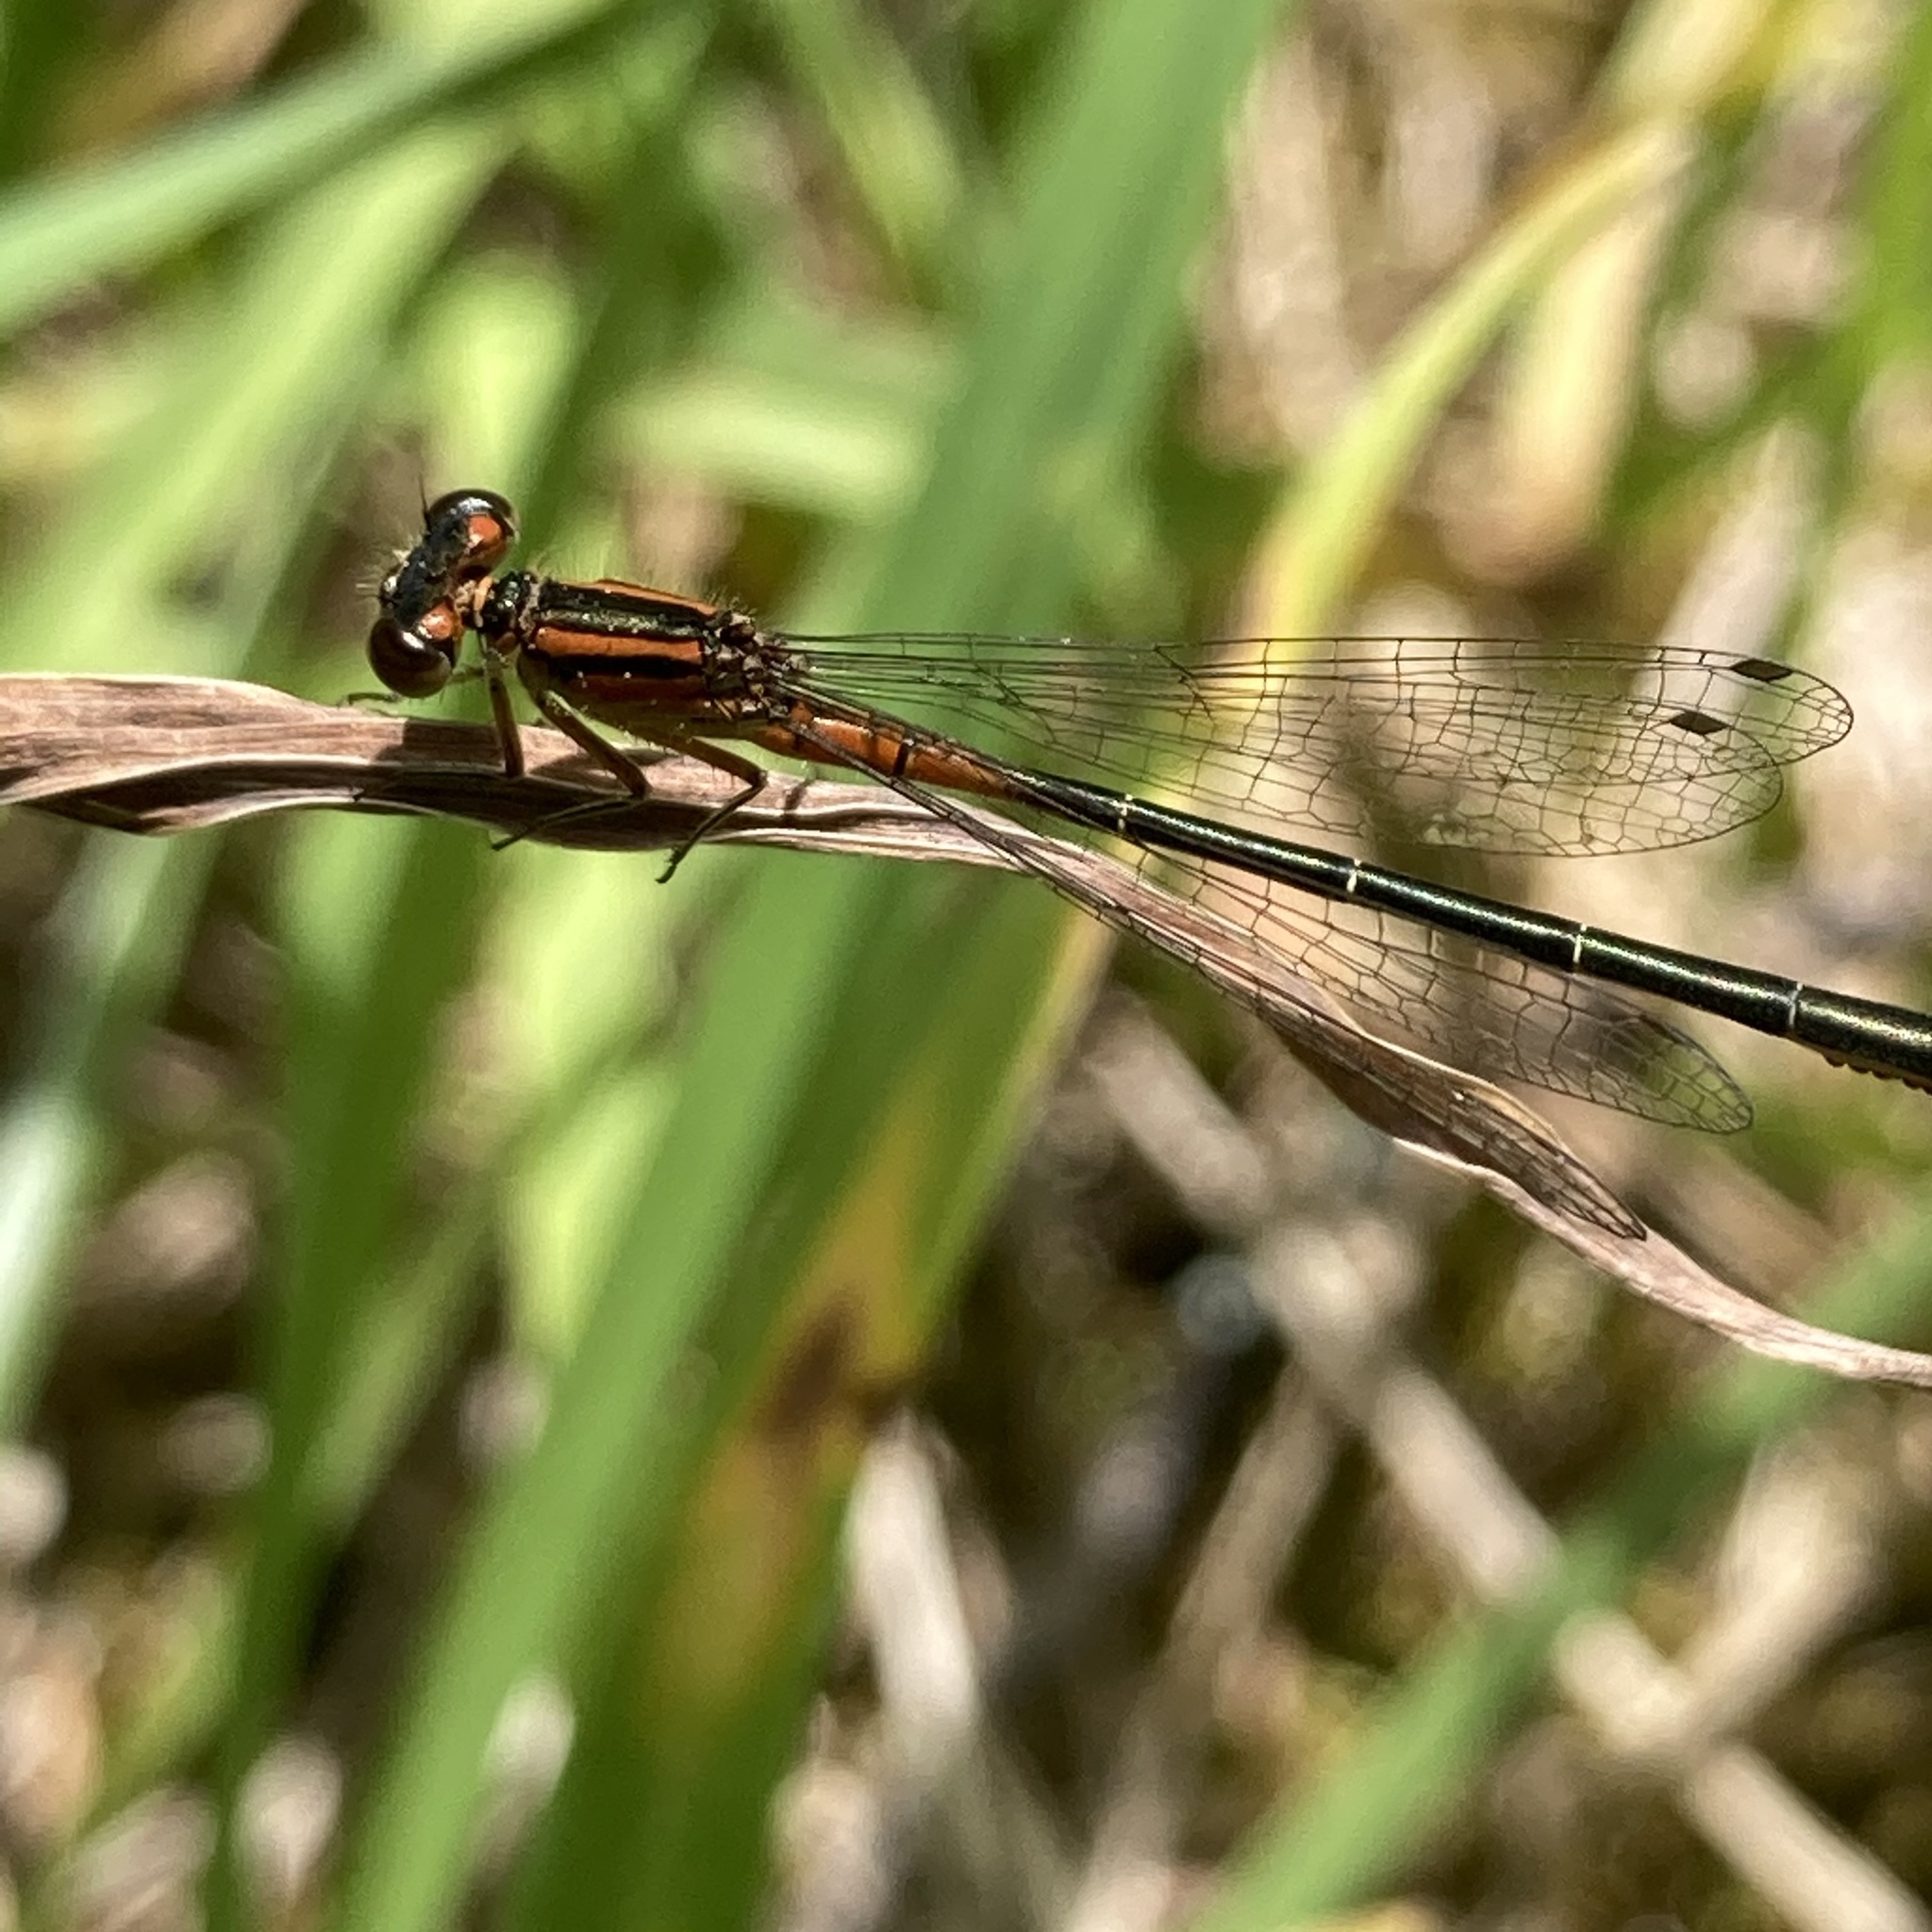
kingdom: Animalia
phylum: Arthropoda
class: Insecta
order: Odonata
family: Coenagrionidae
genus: Ischnura
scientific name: Ischnura verticalis
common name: Eastern forktail
